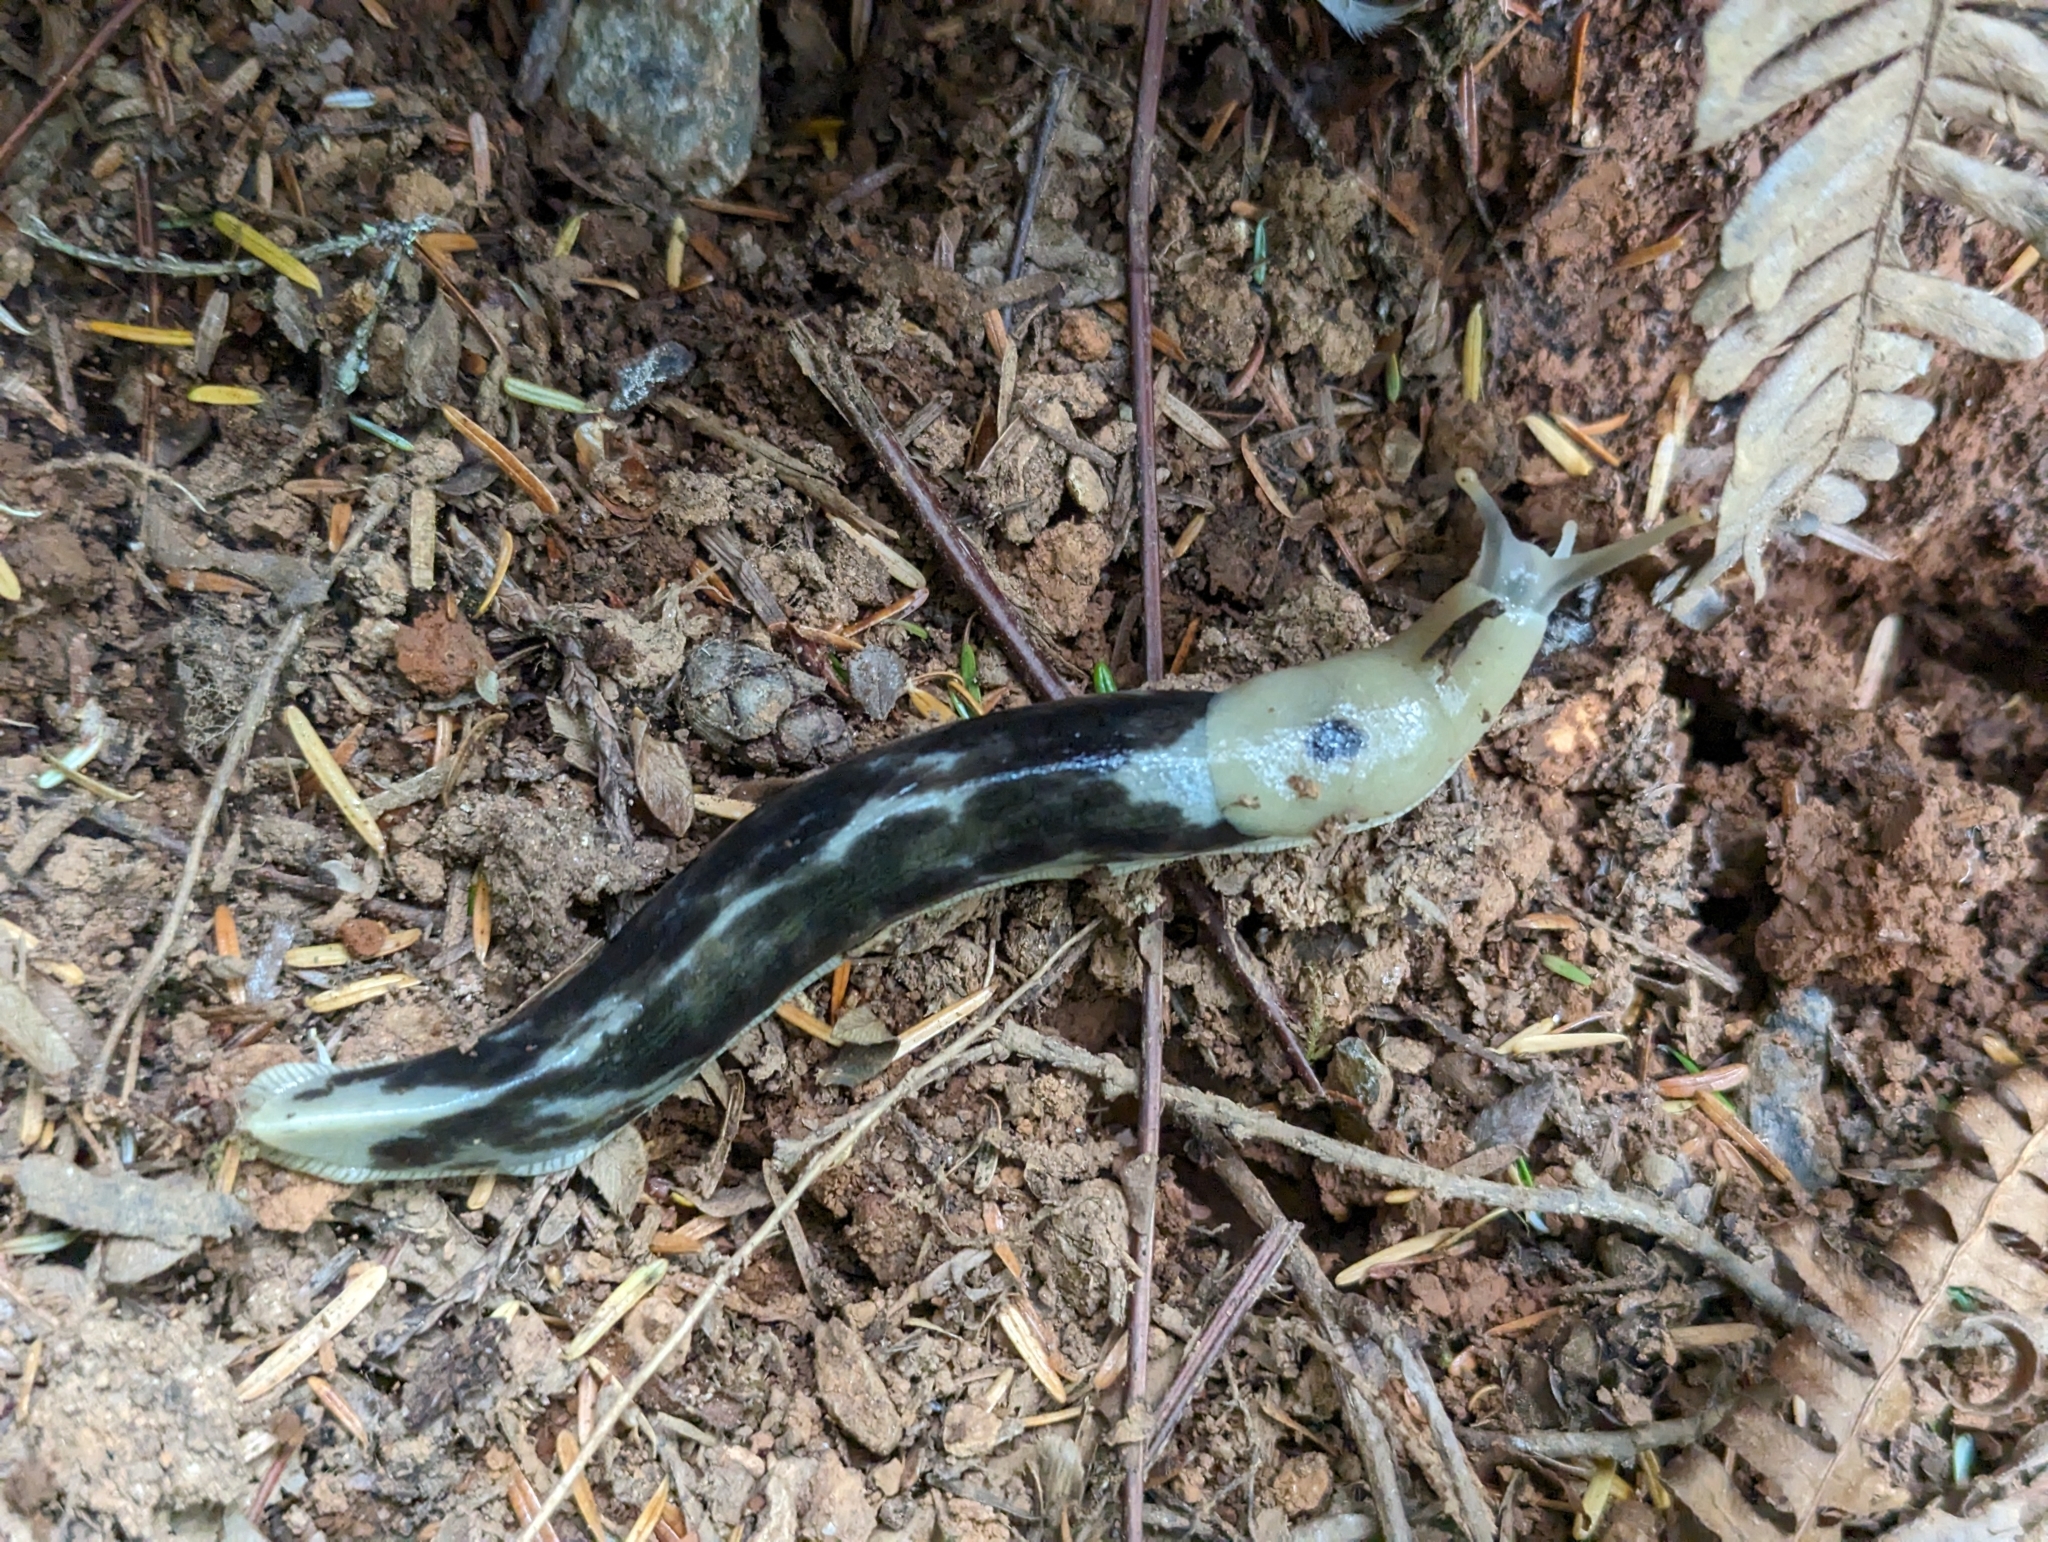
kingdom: Animalia
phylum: Mollusca
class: Gastropoda
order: Stylommatophora
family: Ariolimacidae
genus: Ariolimax
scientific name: Ariolimax columbianus
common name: Pacific banana slug
